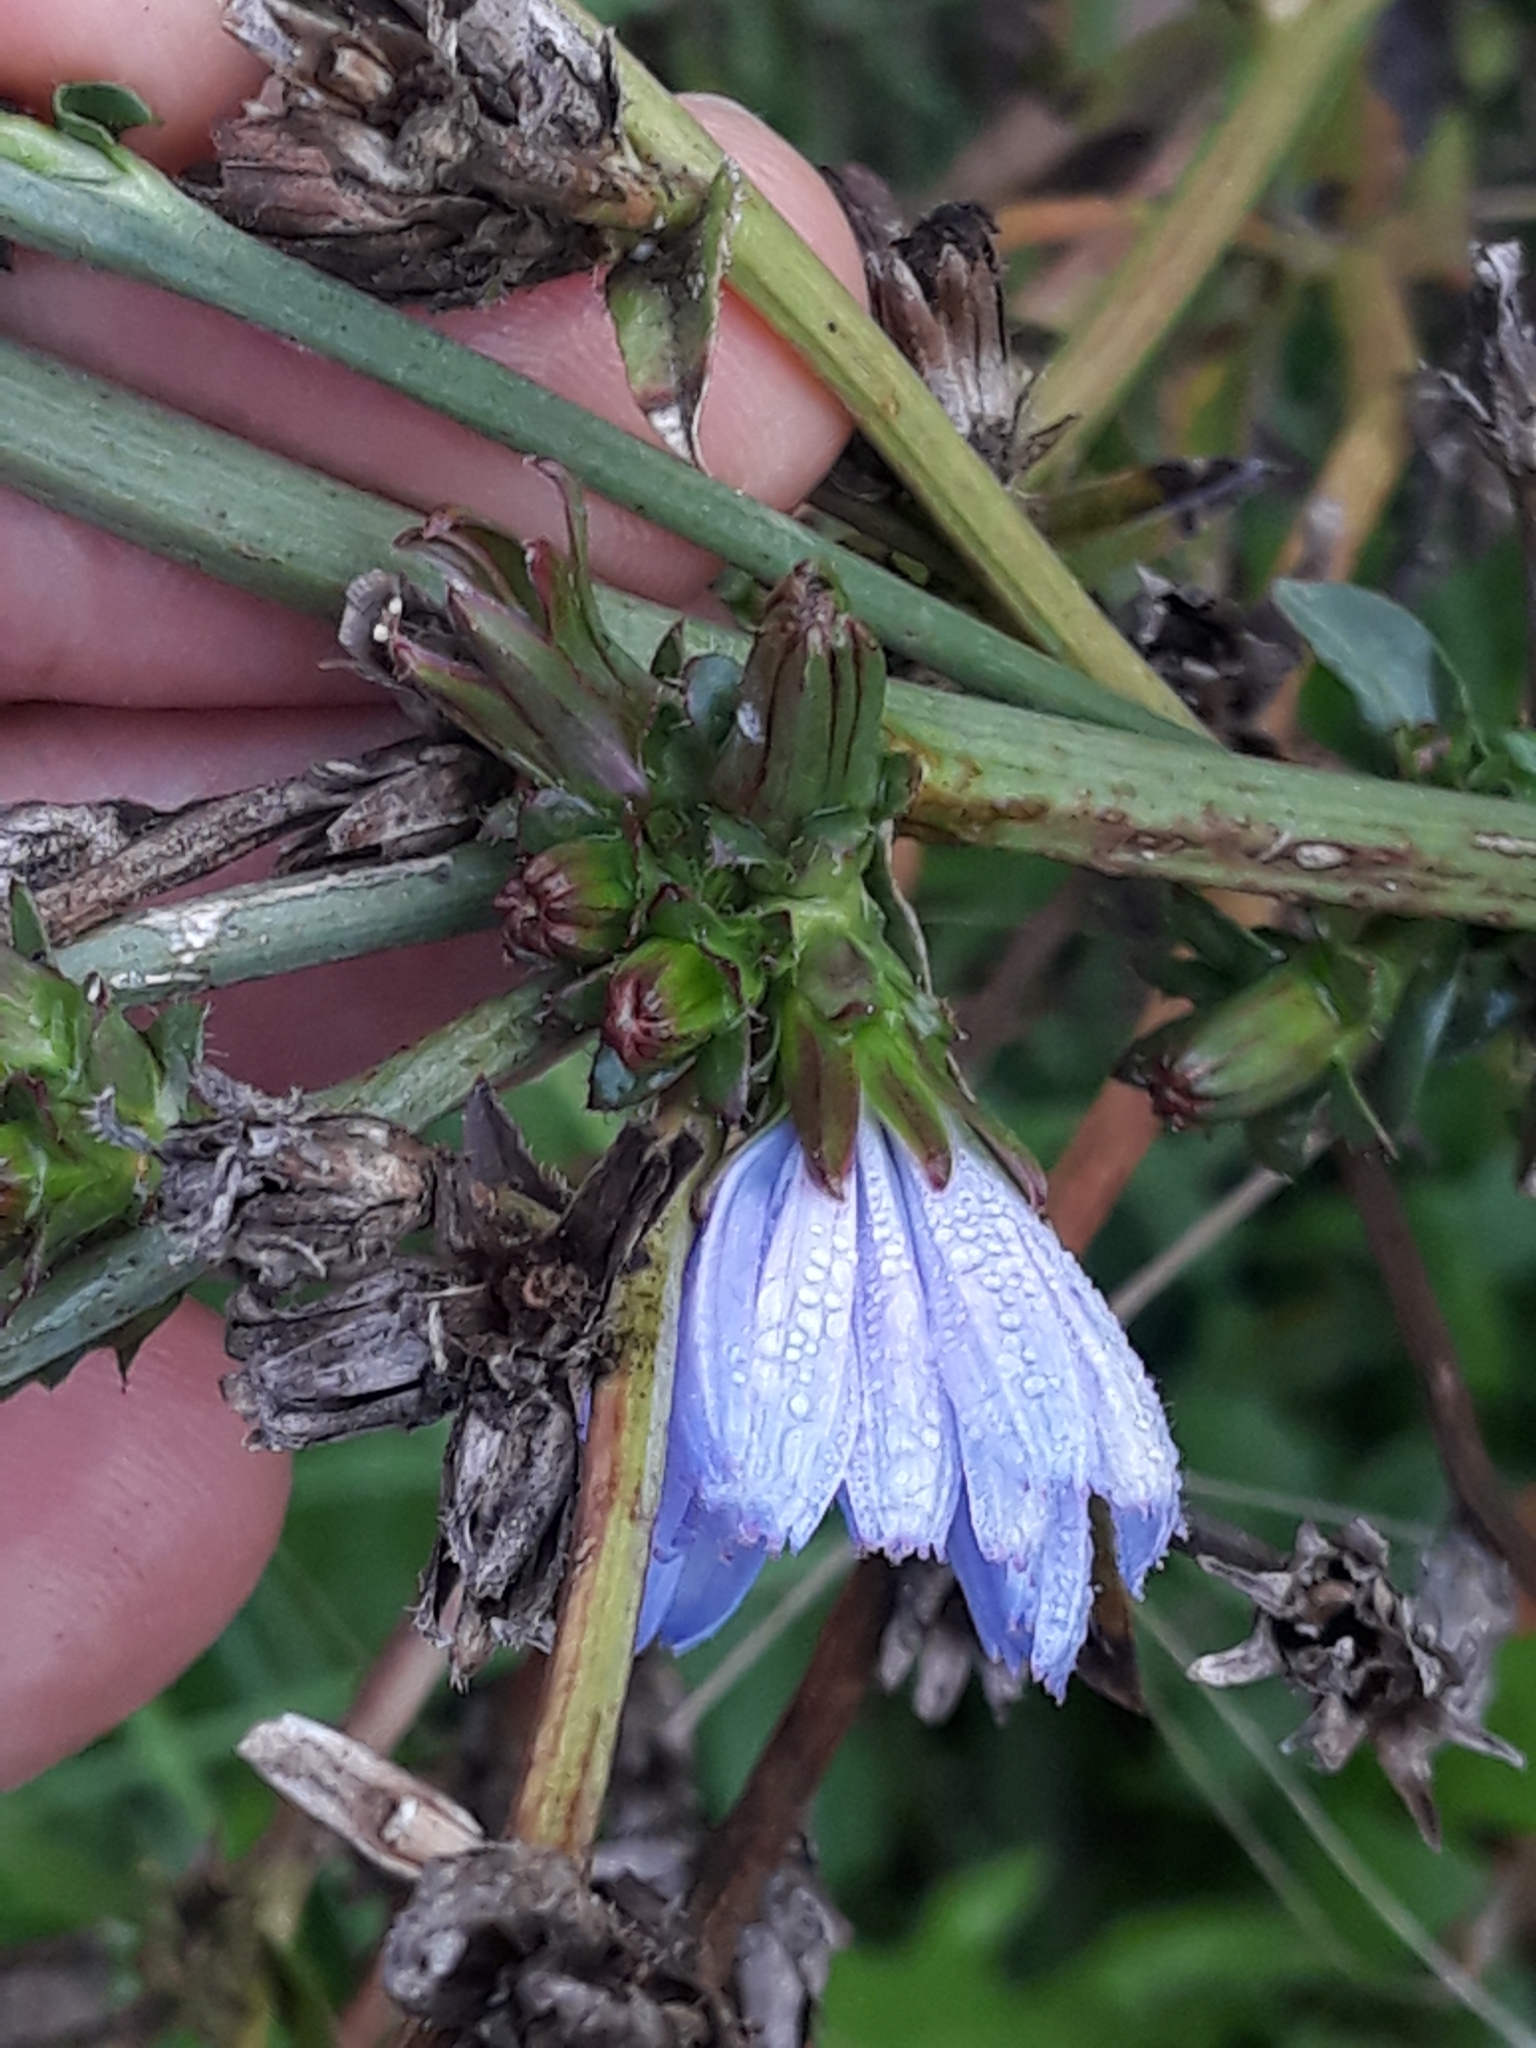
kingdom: Plantae
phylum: Tracheophyta
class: Magnoliopsida
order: Asterales
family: Asteraceae
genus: Cichorium
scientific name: Cichorium intybus
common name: Chicory
